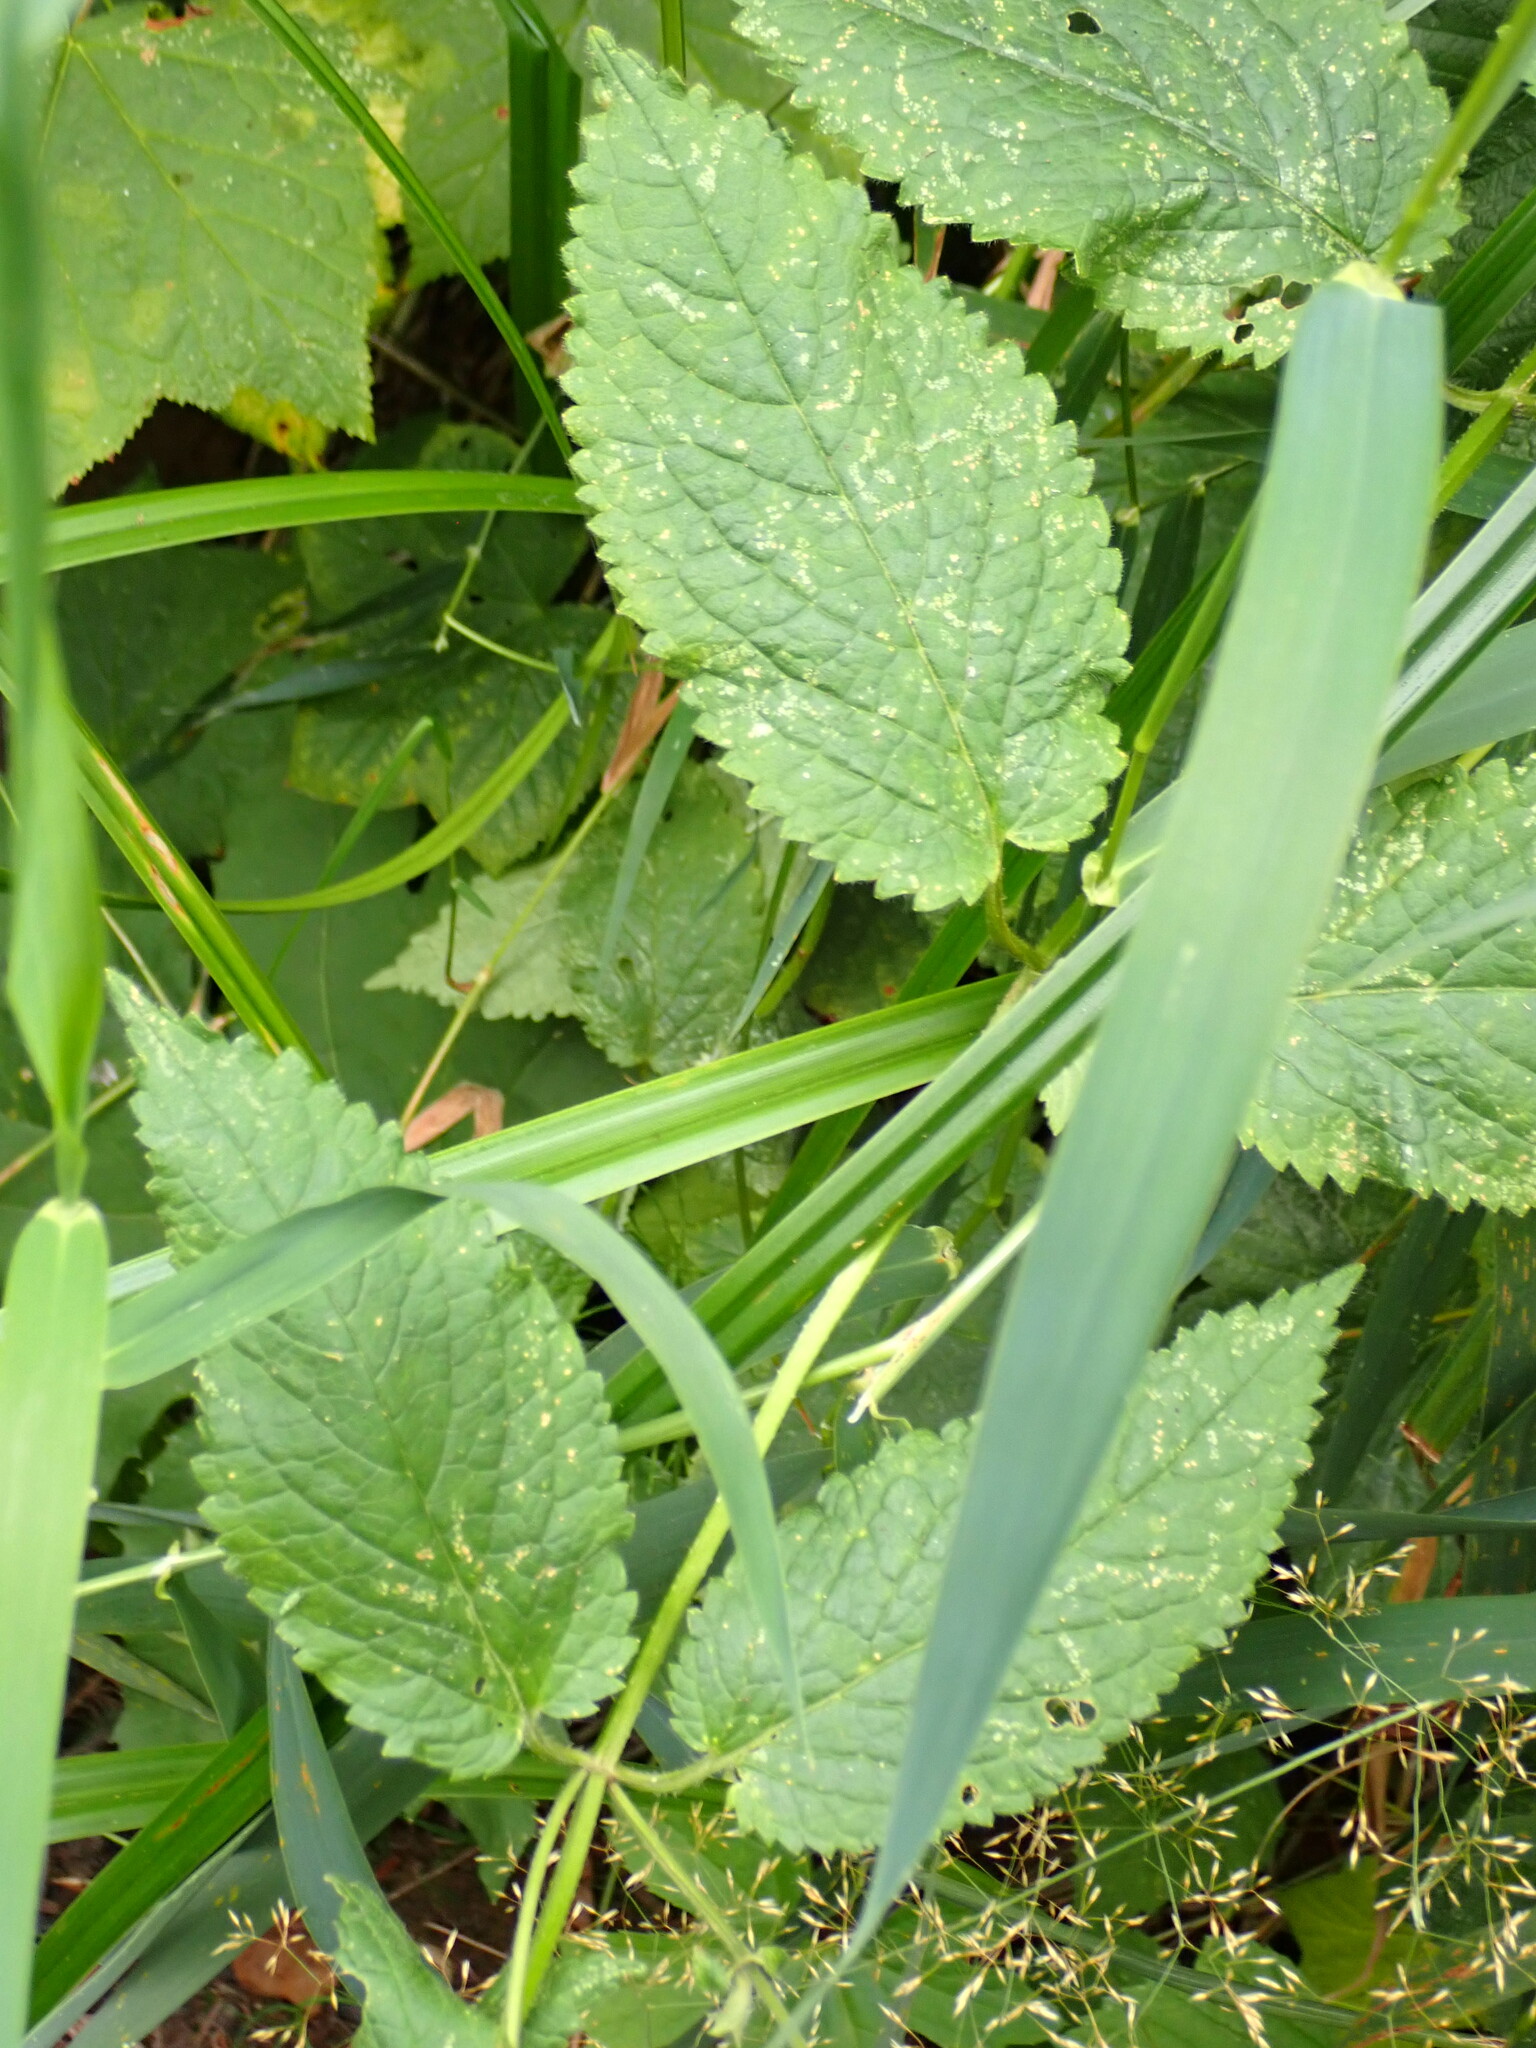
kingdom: Plantae
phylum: Tracheophyta
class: Magnoliopsida
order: Lamiales
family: Lamiaceae
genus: Stachys
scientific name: Stachys chamissonis
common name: Coastal hedge-nettle
